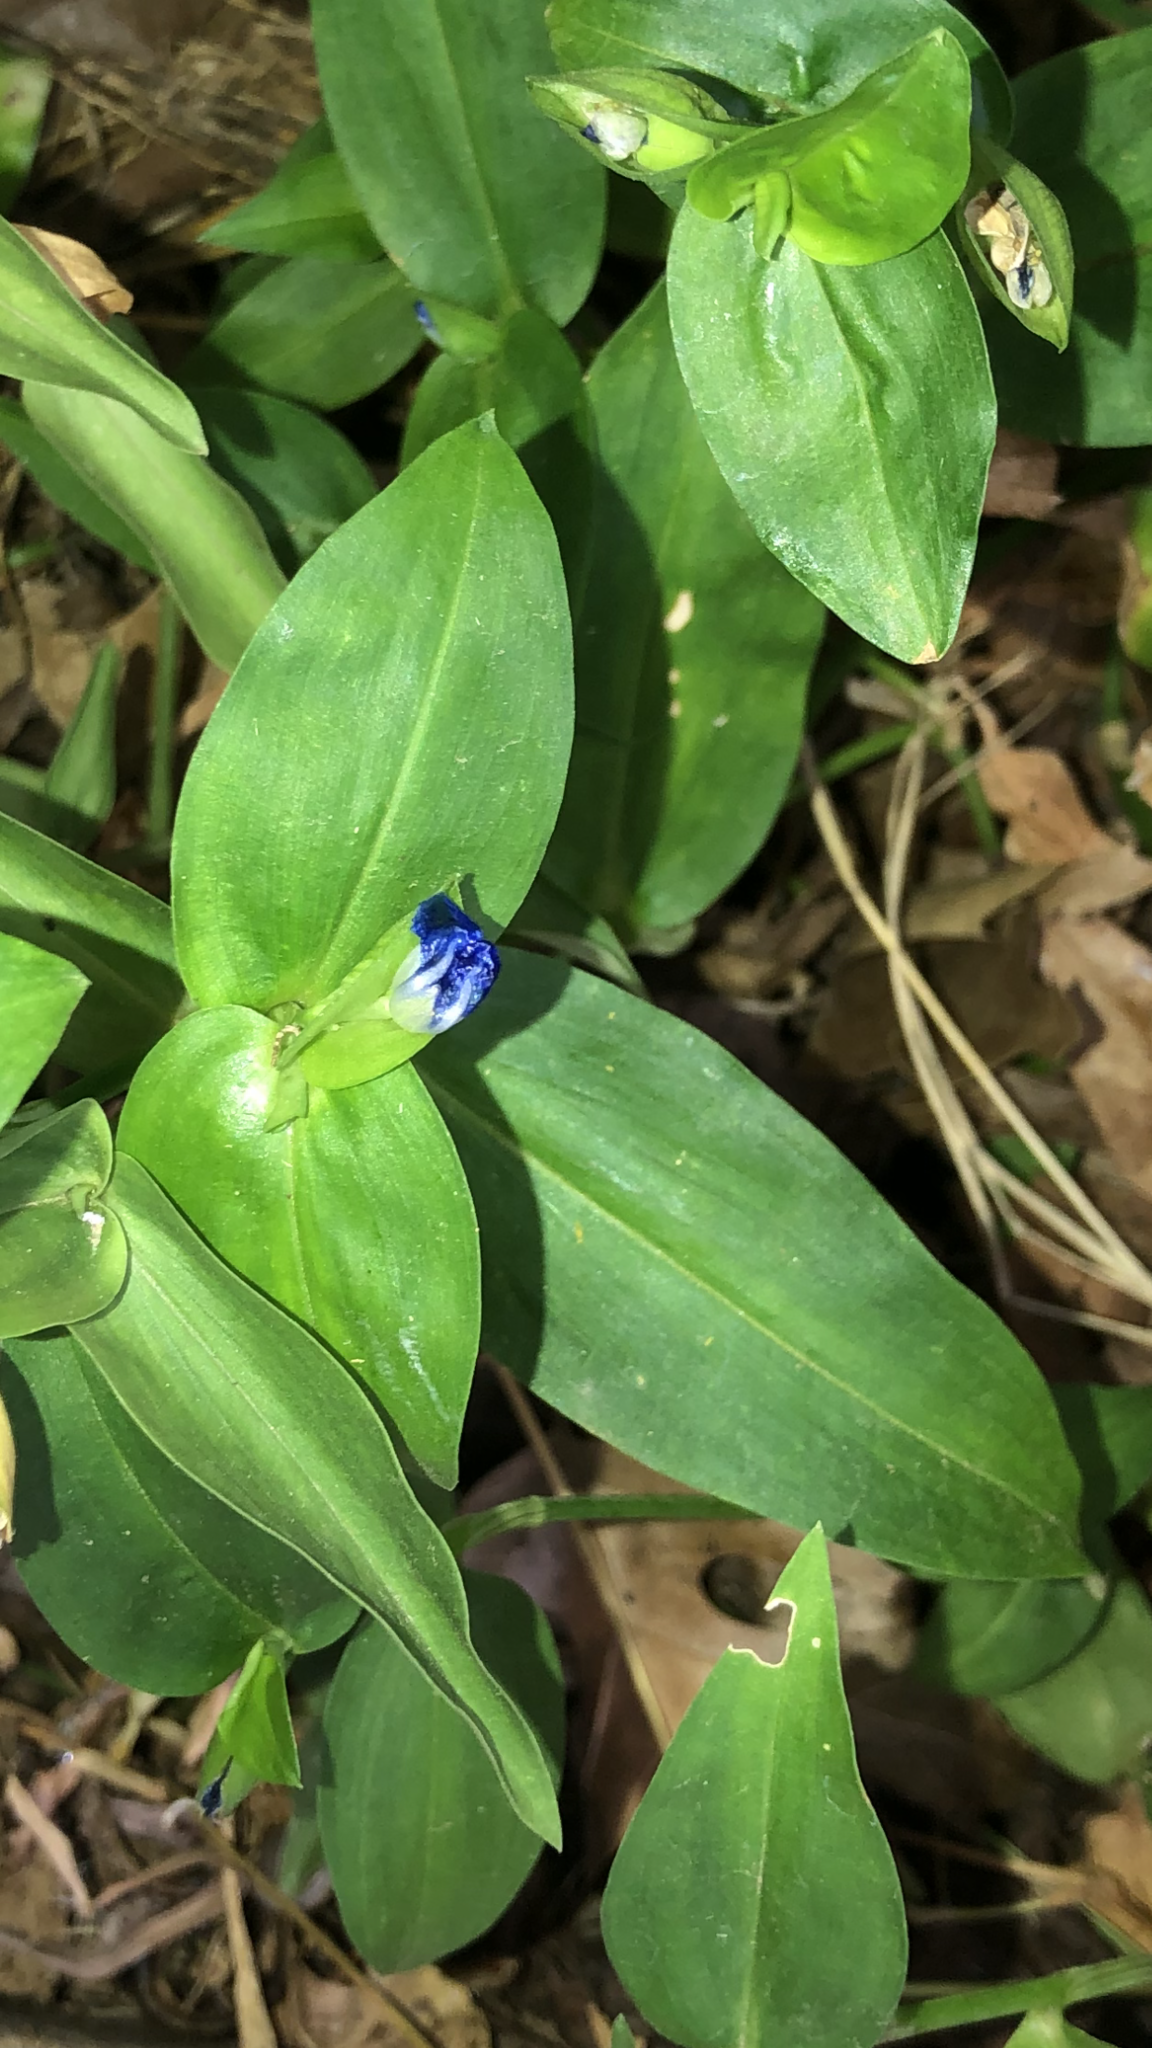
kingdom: Plantae
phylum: Tracheophyta
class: Liliopsida
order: Commelinales
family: Commelinaceae
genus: Commelina
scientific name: Commelina communis
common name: Asiatic dayflower
